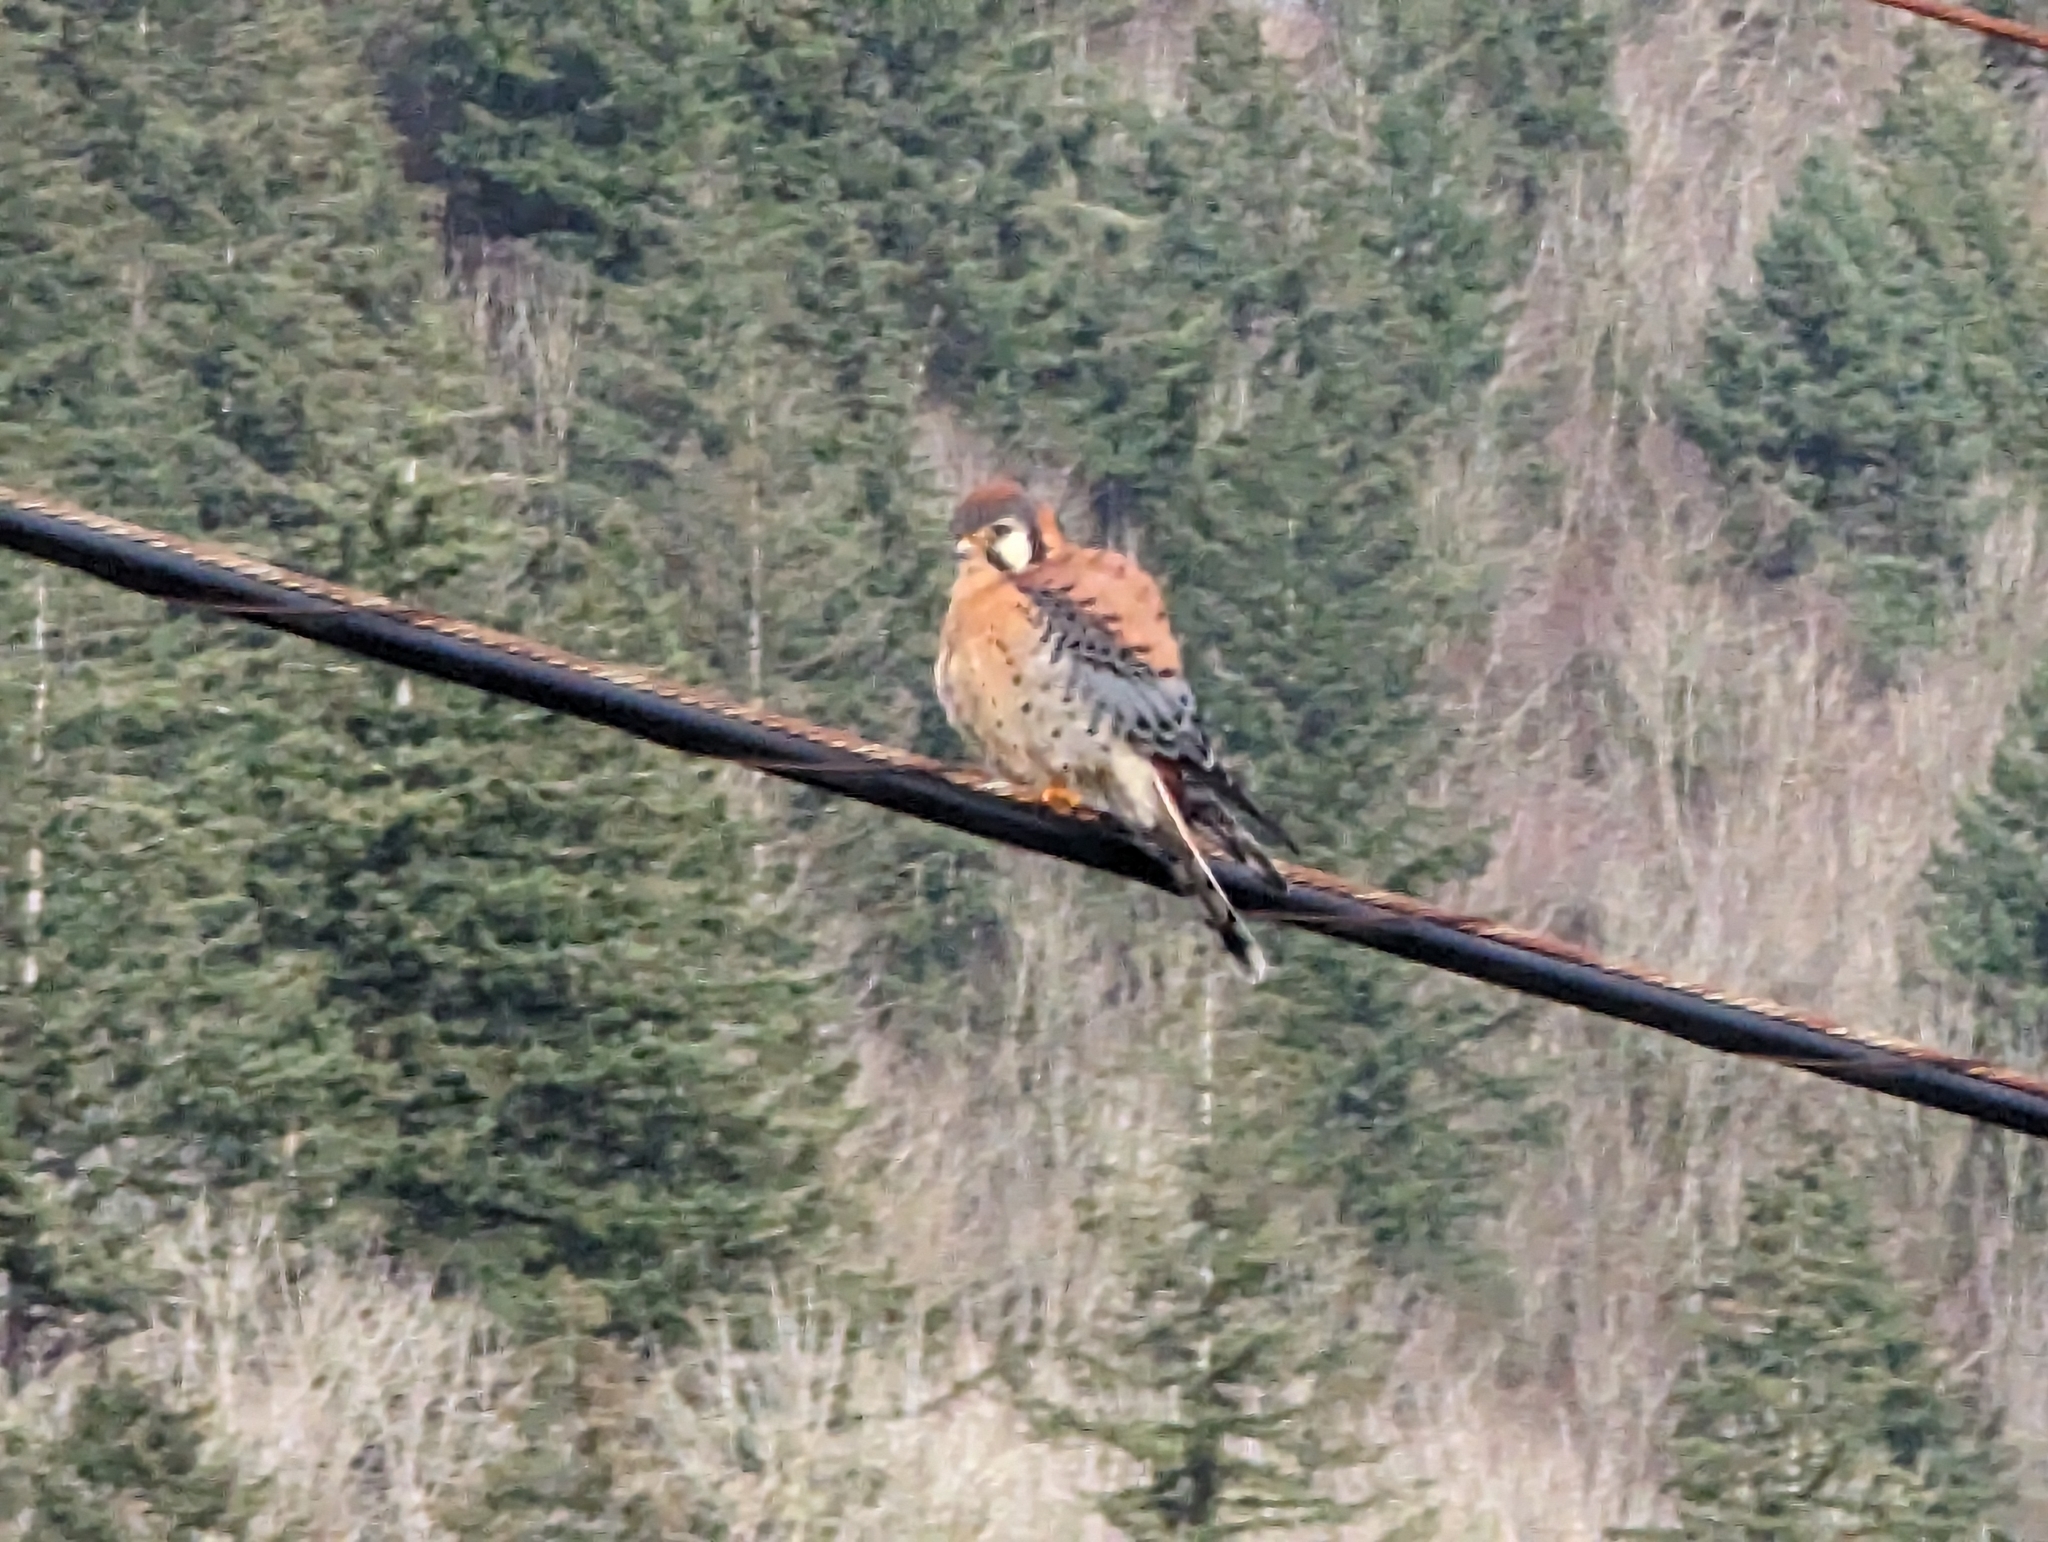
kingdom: Animalia
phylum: Chordata
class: Aves
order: Falconiformes
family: Falconidae
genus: Falco
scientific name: Falco sparverius
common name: American kestrel
